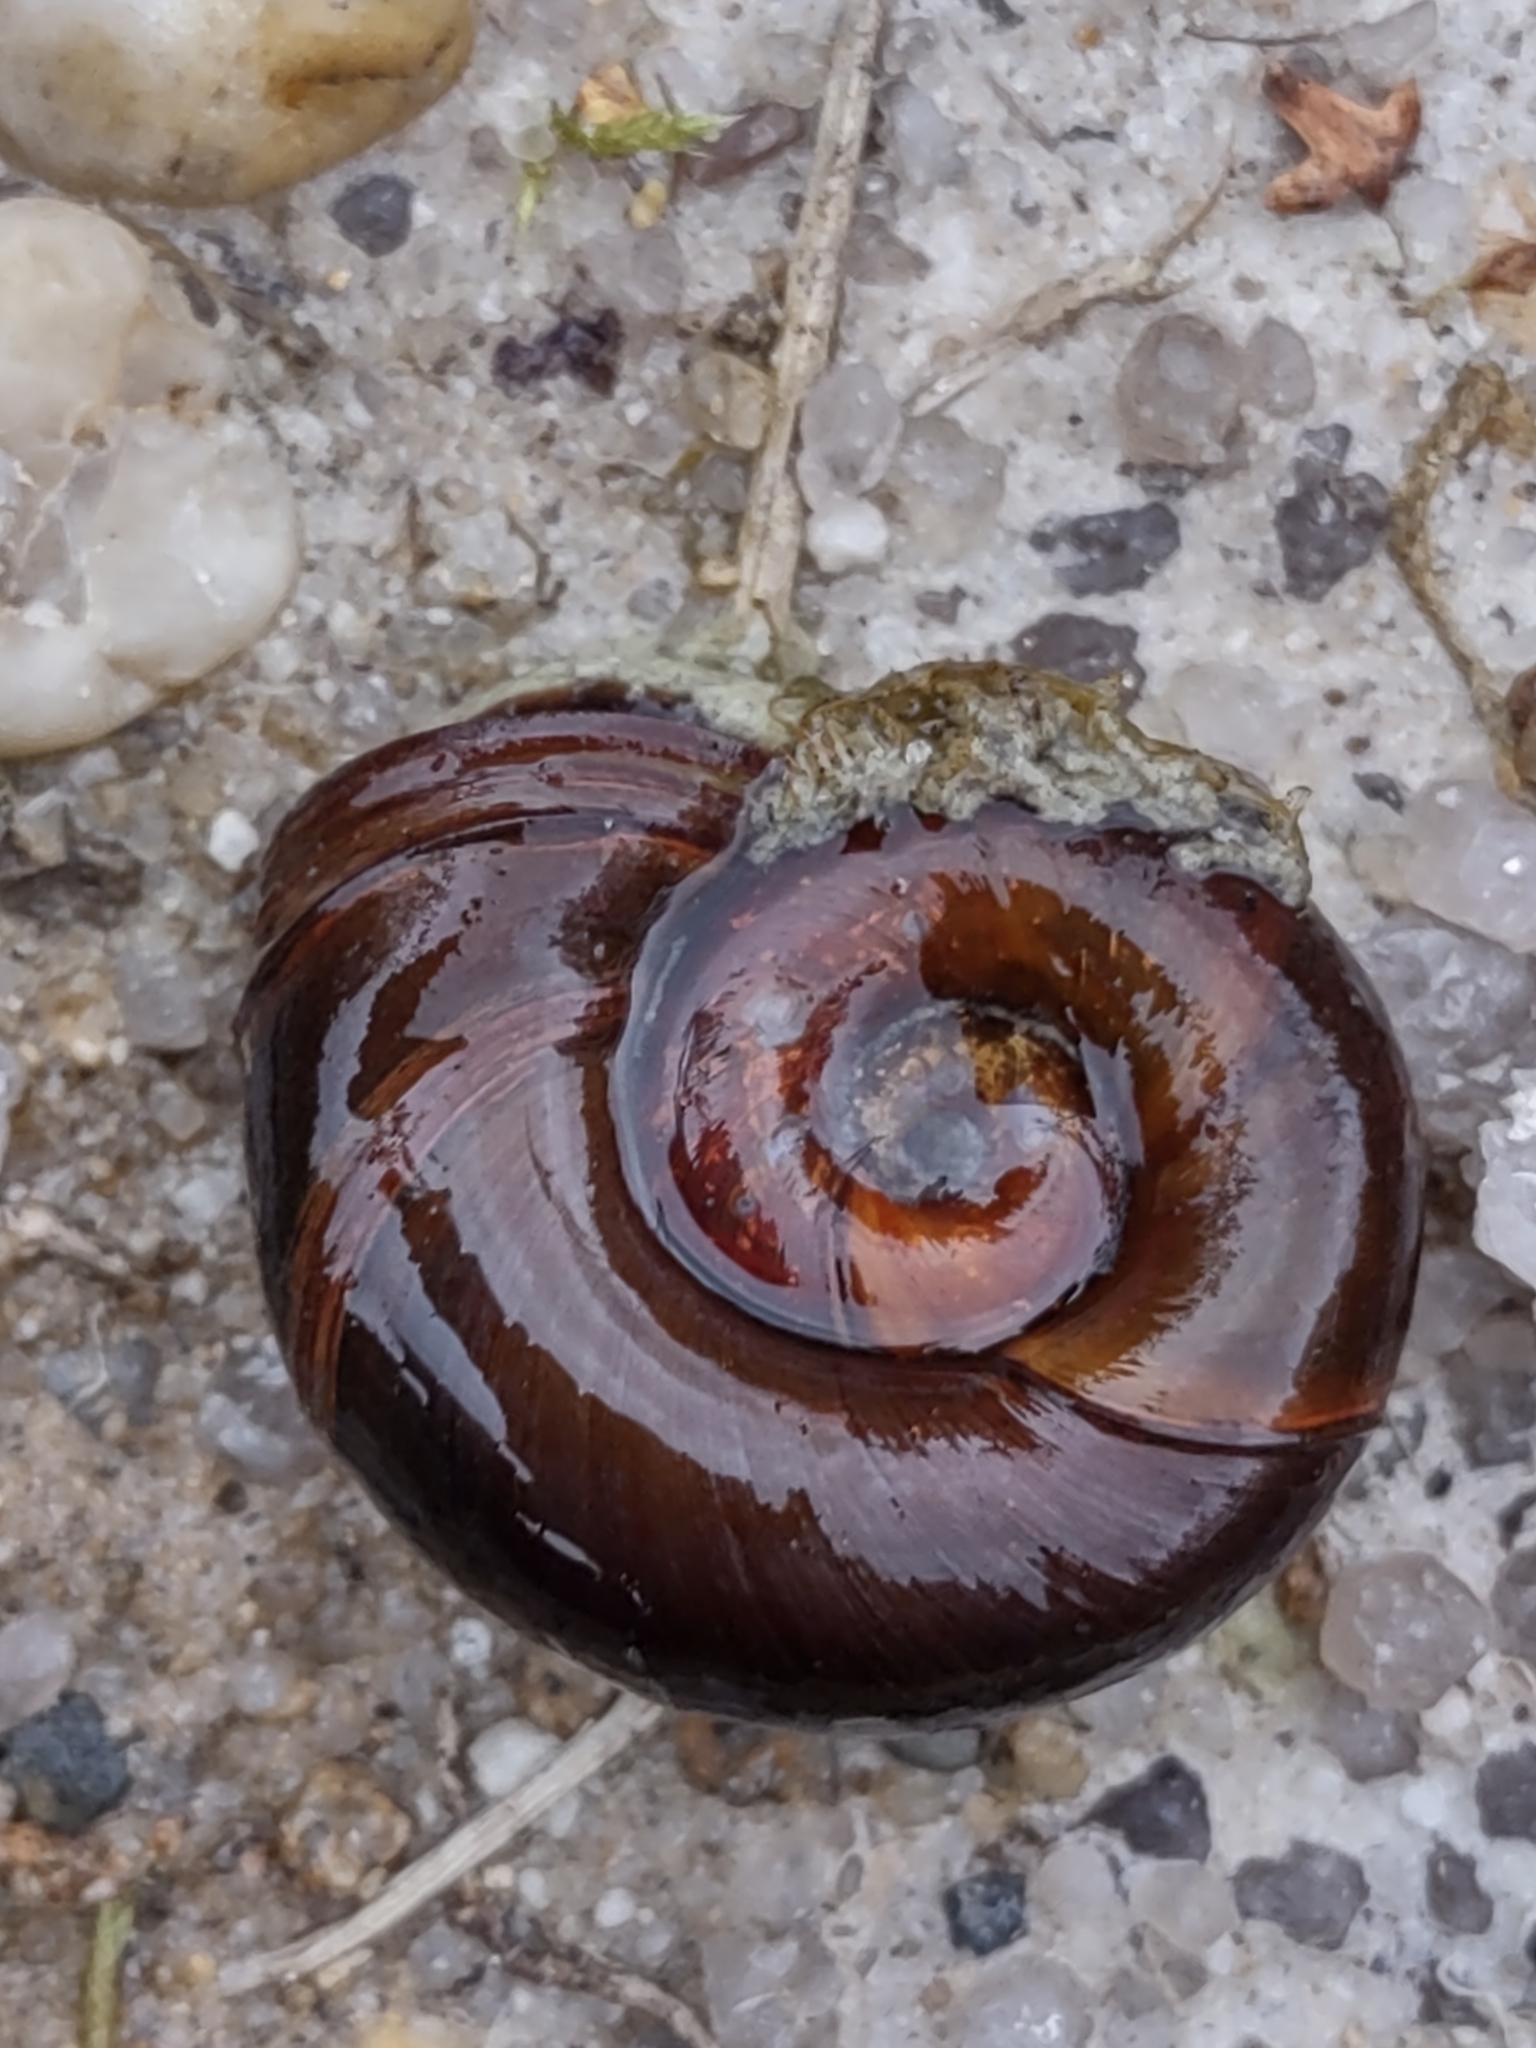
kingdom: Animalia
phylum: Mollusca
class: Gastropoda
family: Planorbidae
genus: Planorbarius
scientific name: Planorbarius corneus
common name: Great ramshorn
